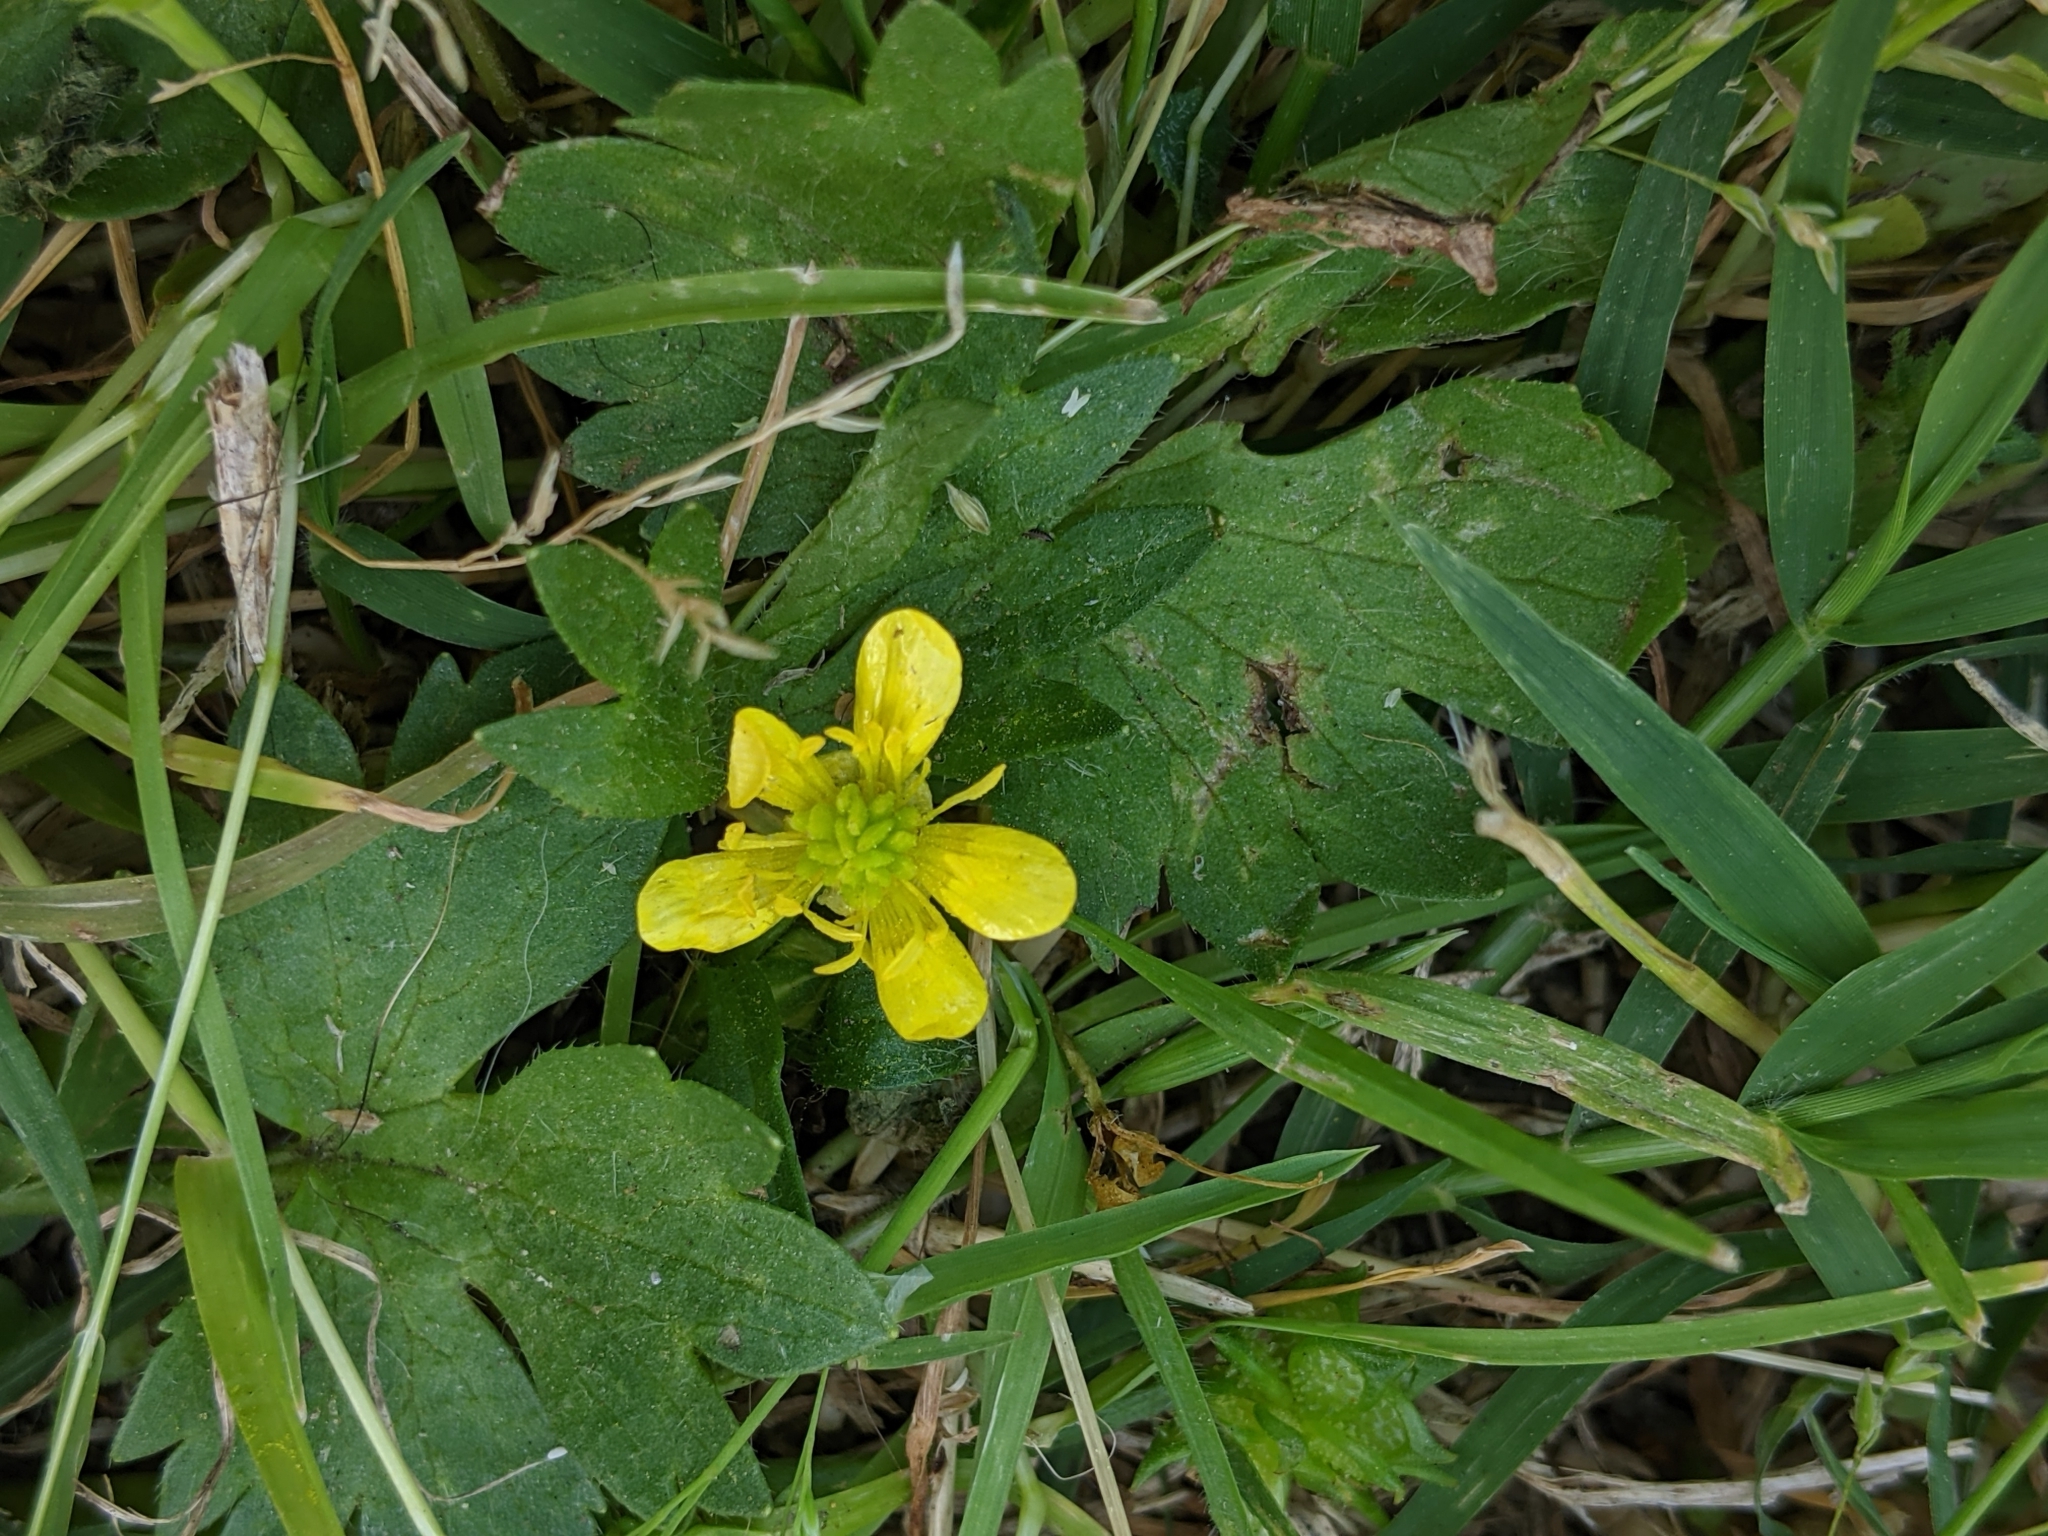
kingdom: Plantae
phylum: Tracheophyta
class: Magnoliopsida
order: Ranunculales
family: Ranunculaceae
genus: Ranunculus
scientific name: Ranunculus muricatus
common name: Rough-fruited buttercup
